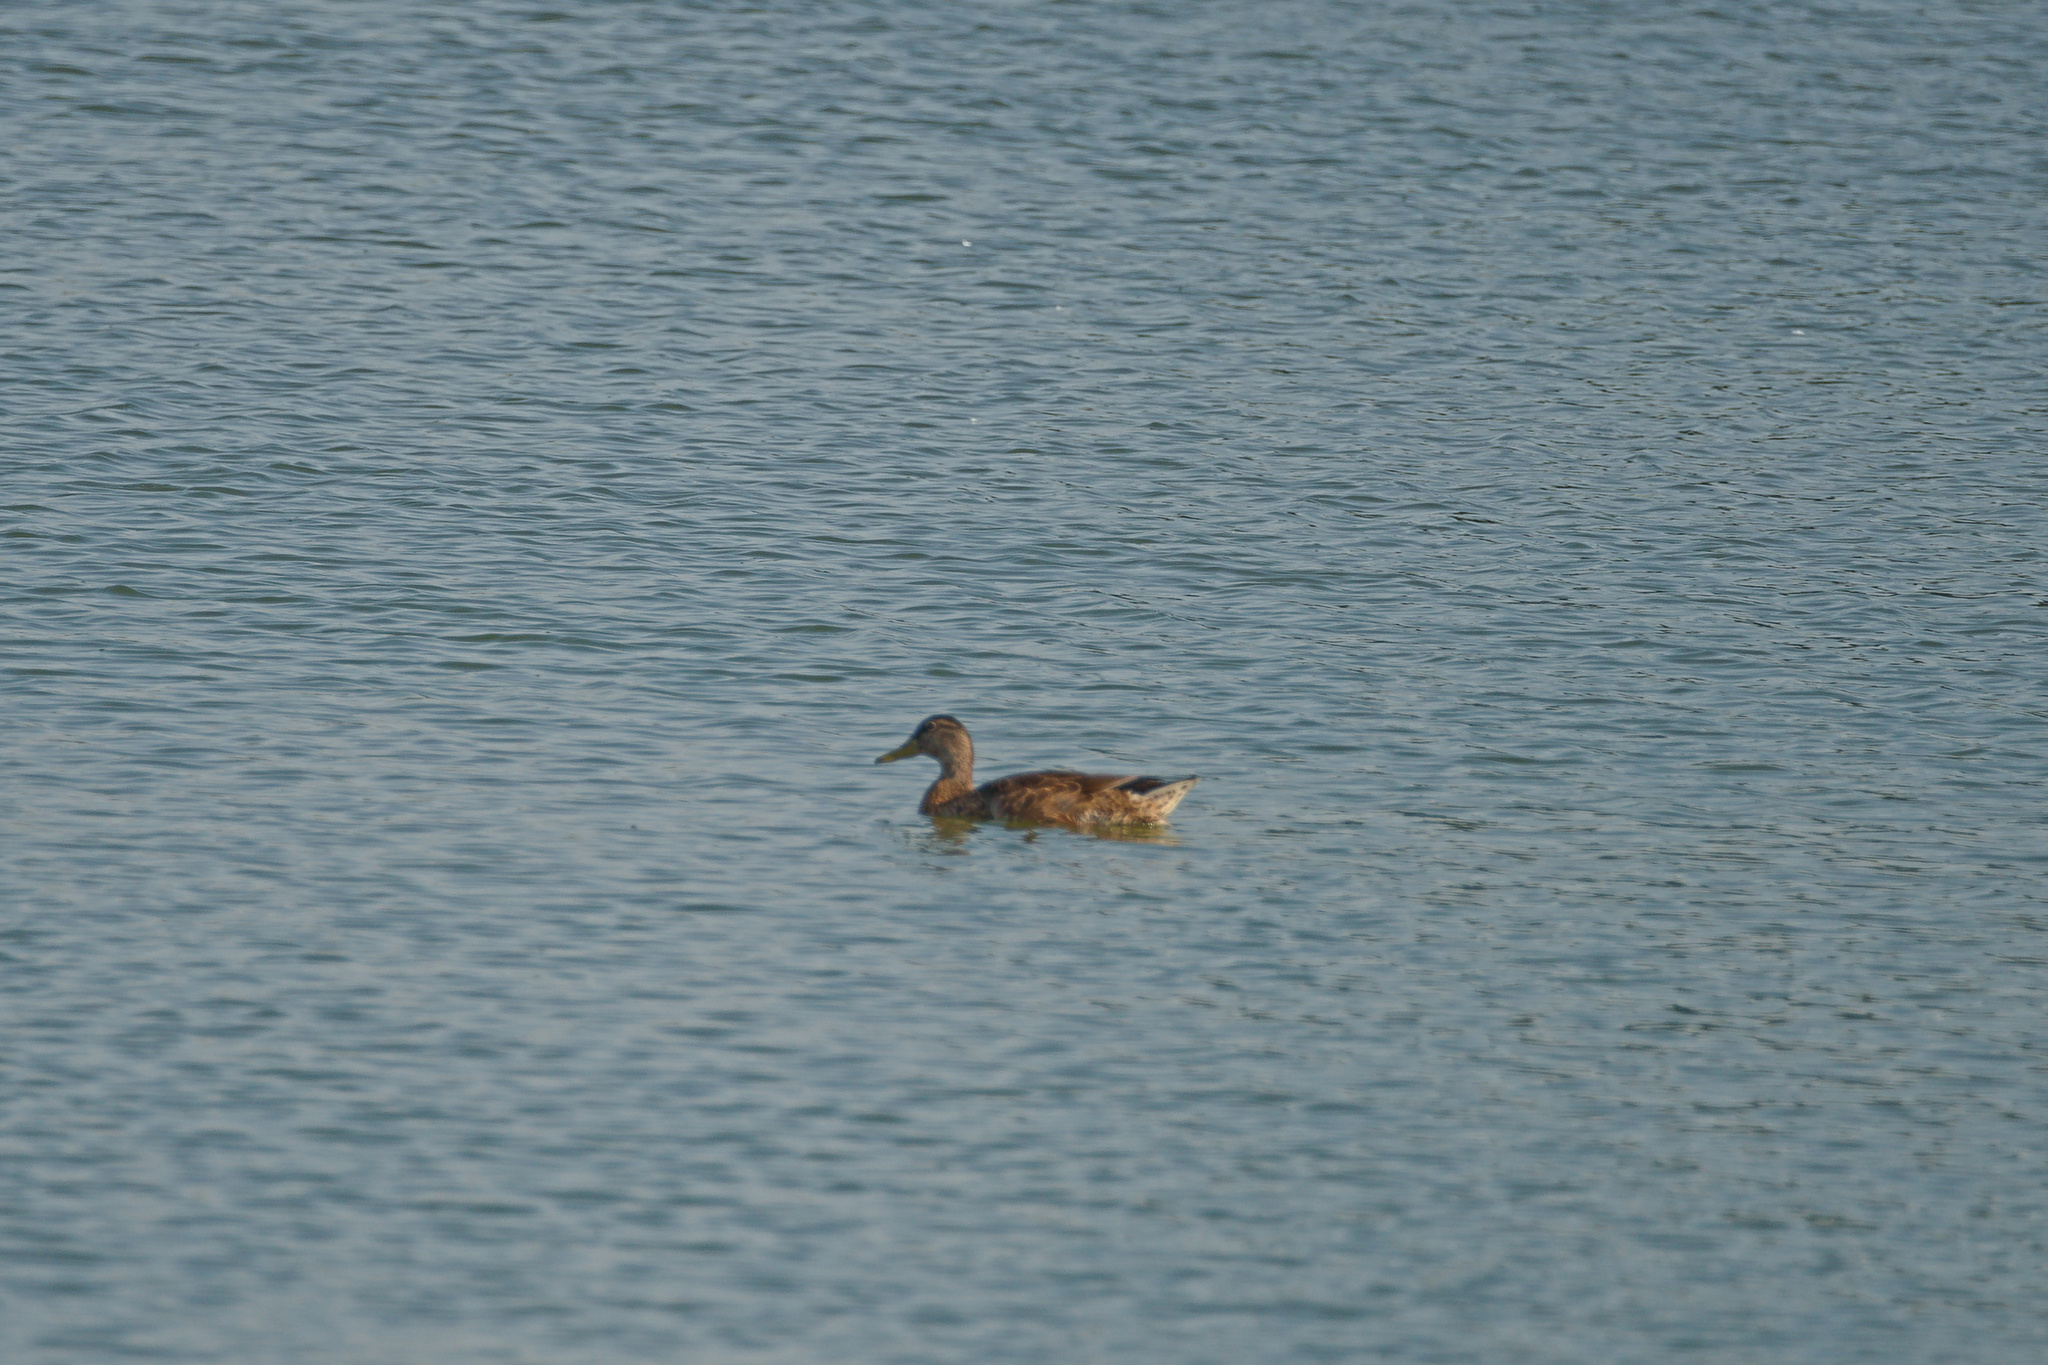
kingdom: Animalia
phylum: Chordata
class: Aves
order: Anseriformes
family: Anatidae
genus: Anas
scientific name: Anas platyrhynchos
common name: Mallard
